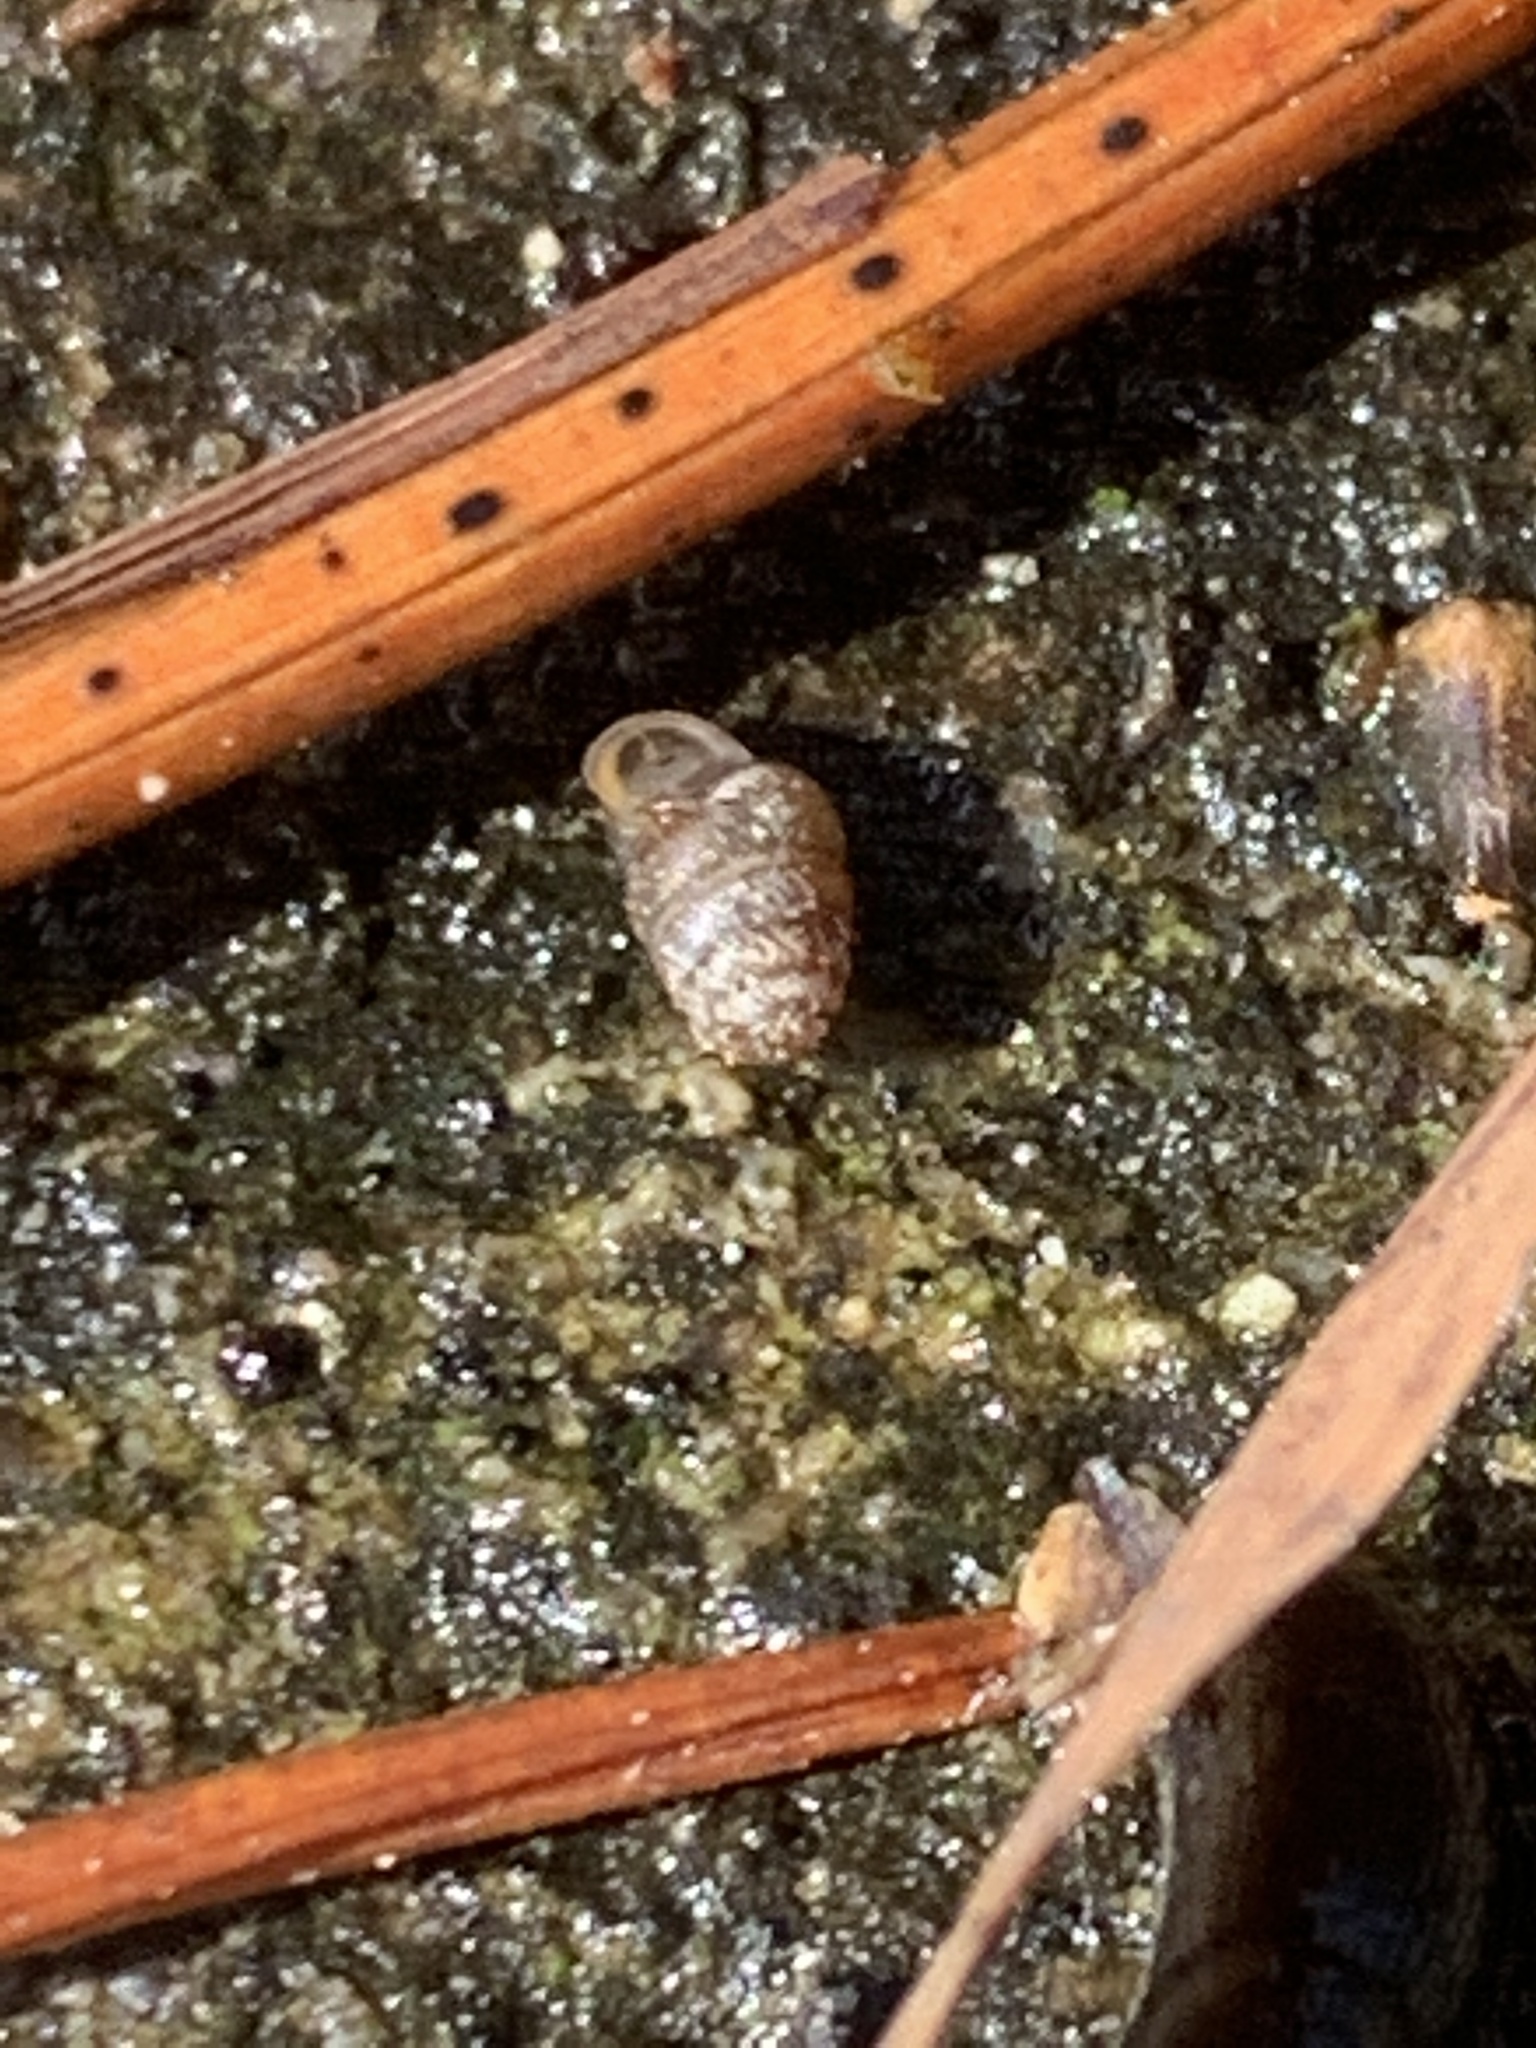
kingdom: Animalia
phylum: Mollusca
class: Gastropoda
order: Stylommatophora
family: Lauriidae
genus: Lauria
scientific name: Lauria cylindracea
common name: Common chrysalis snail
